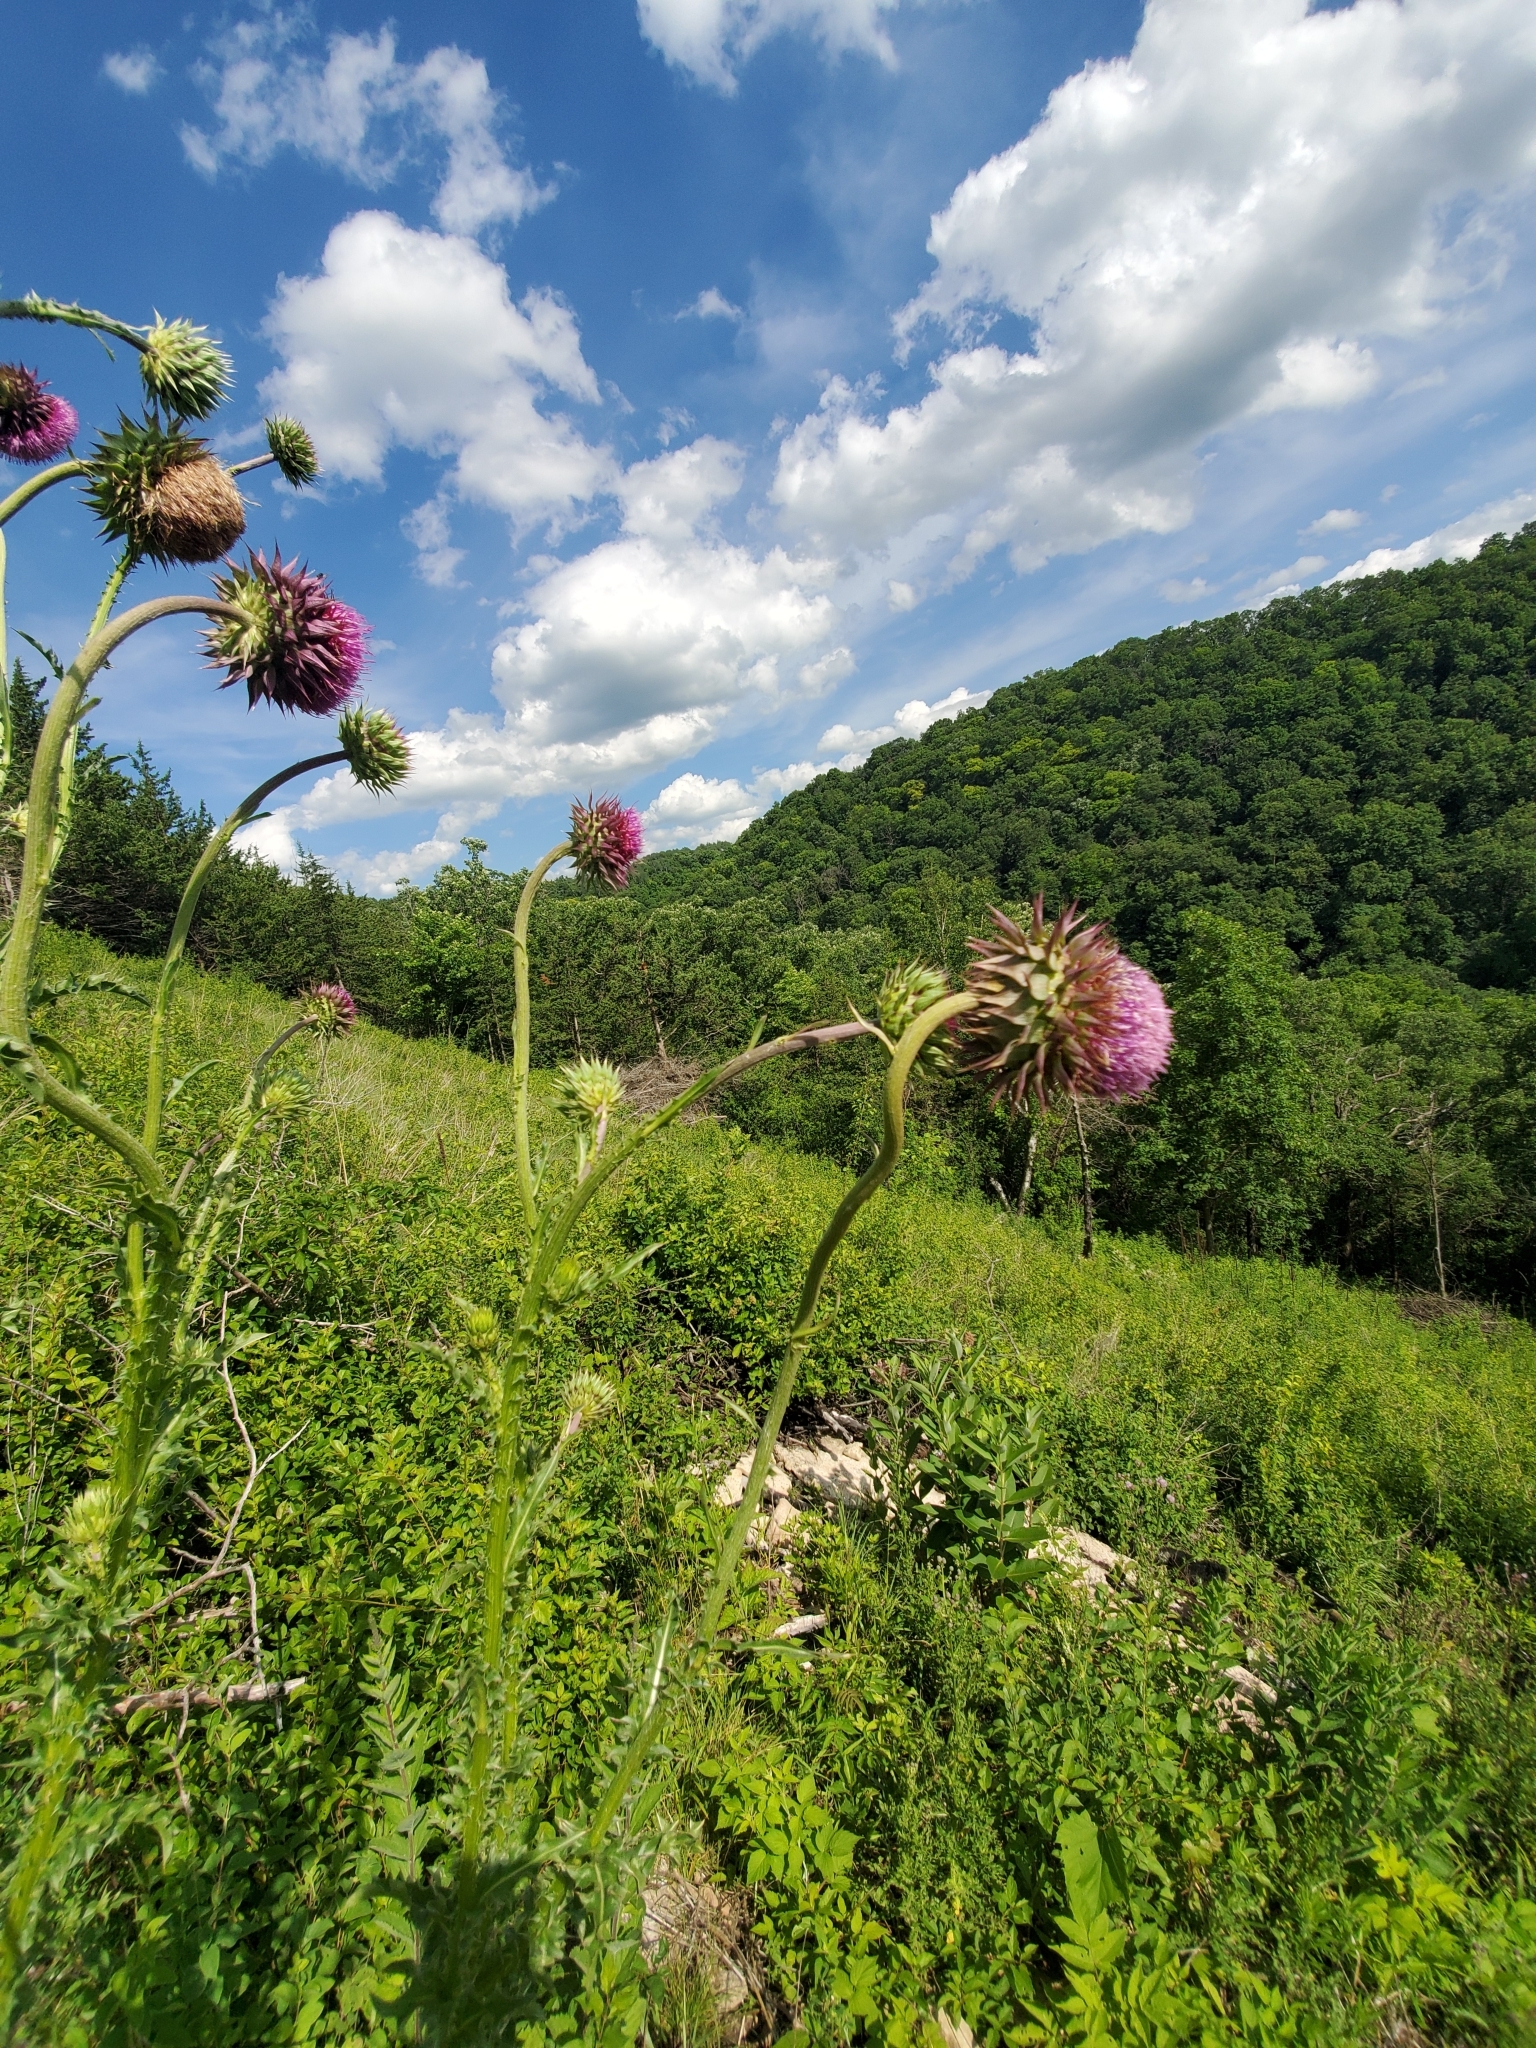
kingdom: Plantae
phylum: Tracheophyta
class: Magnoliopsida
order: Asterales
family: Asteraceae
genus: Carduus
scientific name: Carduus nutans
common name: Musk thistle
